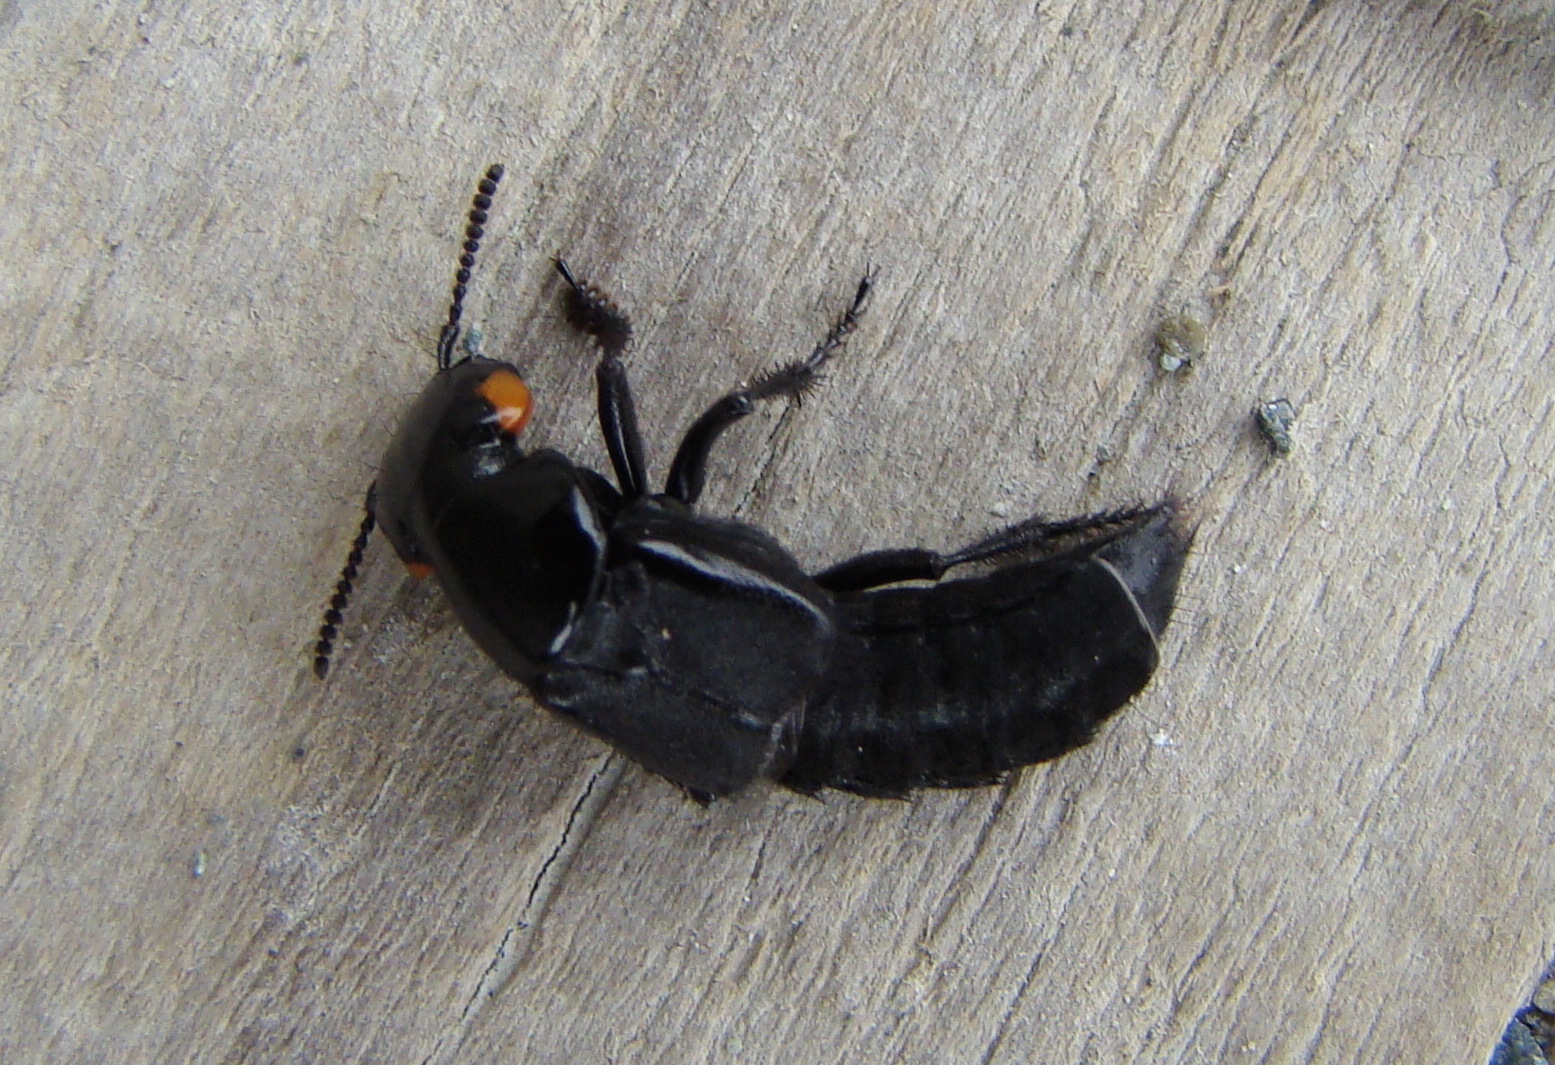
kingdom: Animalia
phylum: Arthropoda
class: Insecta
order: Coleoptera
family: Staphylinidae
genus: Creophilus
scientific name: Creophilus oculatus
